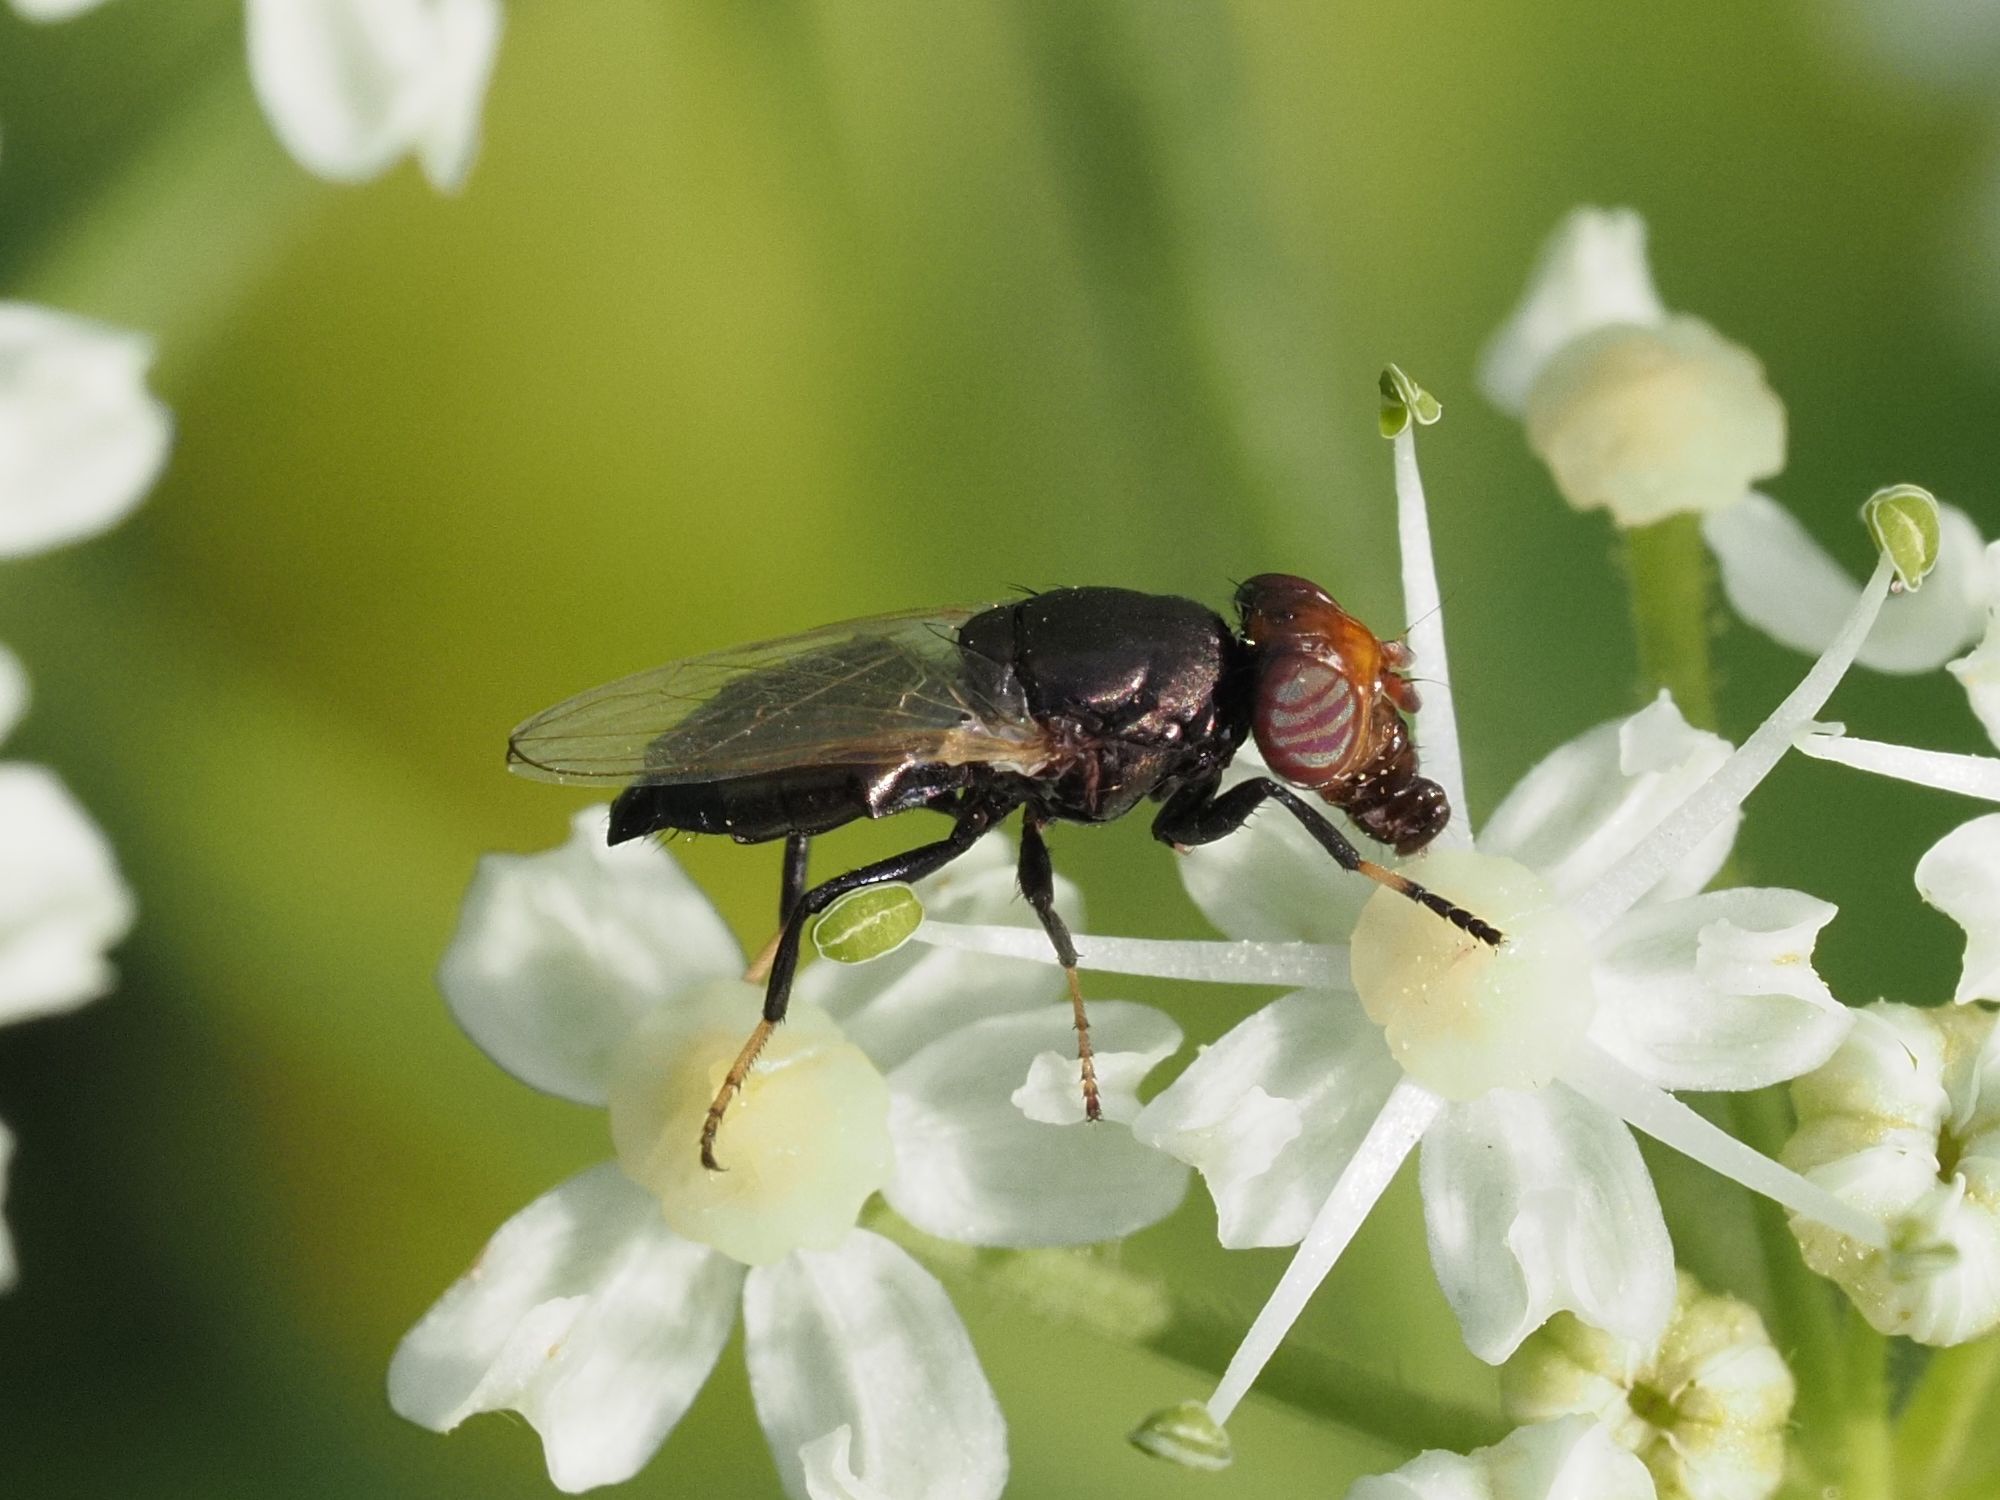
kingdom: Animalia
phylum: Arthropoda
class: Insecta
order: Diptera
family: Ulidiidae
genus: Physiphora
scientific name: Physiphora alceae
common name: Picture-winged fly
